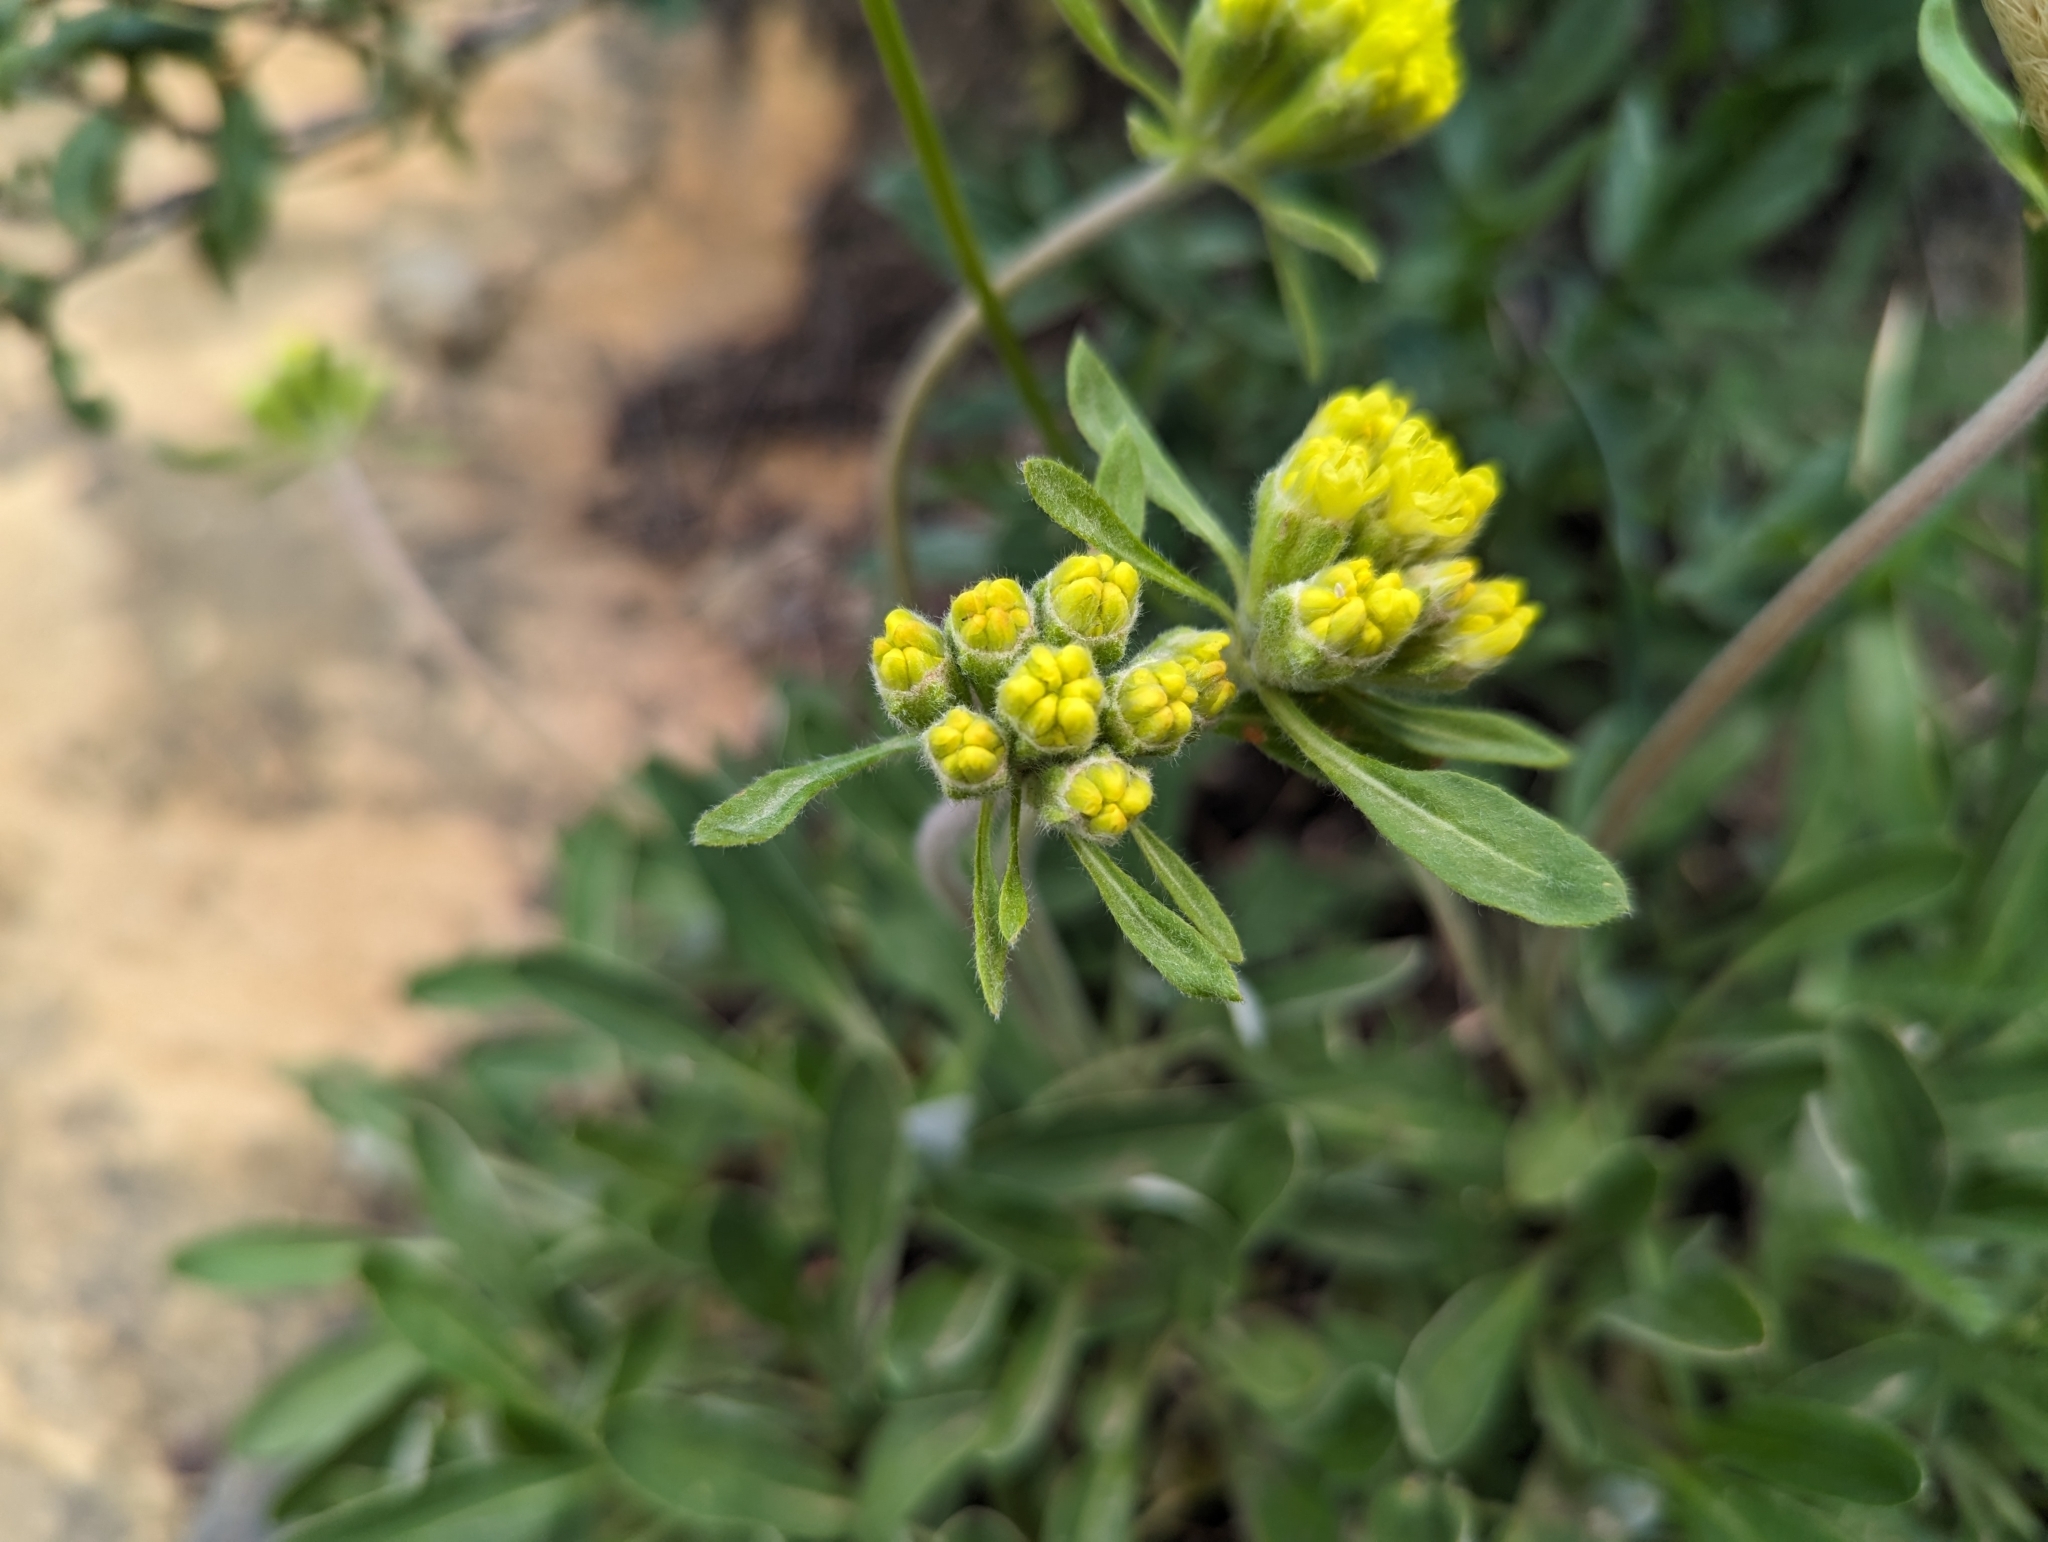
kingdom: Plantae
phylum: Tracheophyta
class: Magnoliopsida
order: Caryophyllales
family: Polygonaceae
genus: Eriogonum
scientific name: Eriogonum flavum
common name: Alpine golden wild buckwheat
